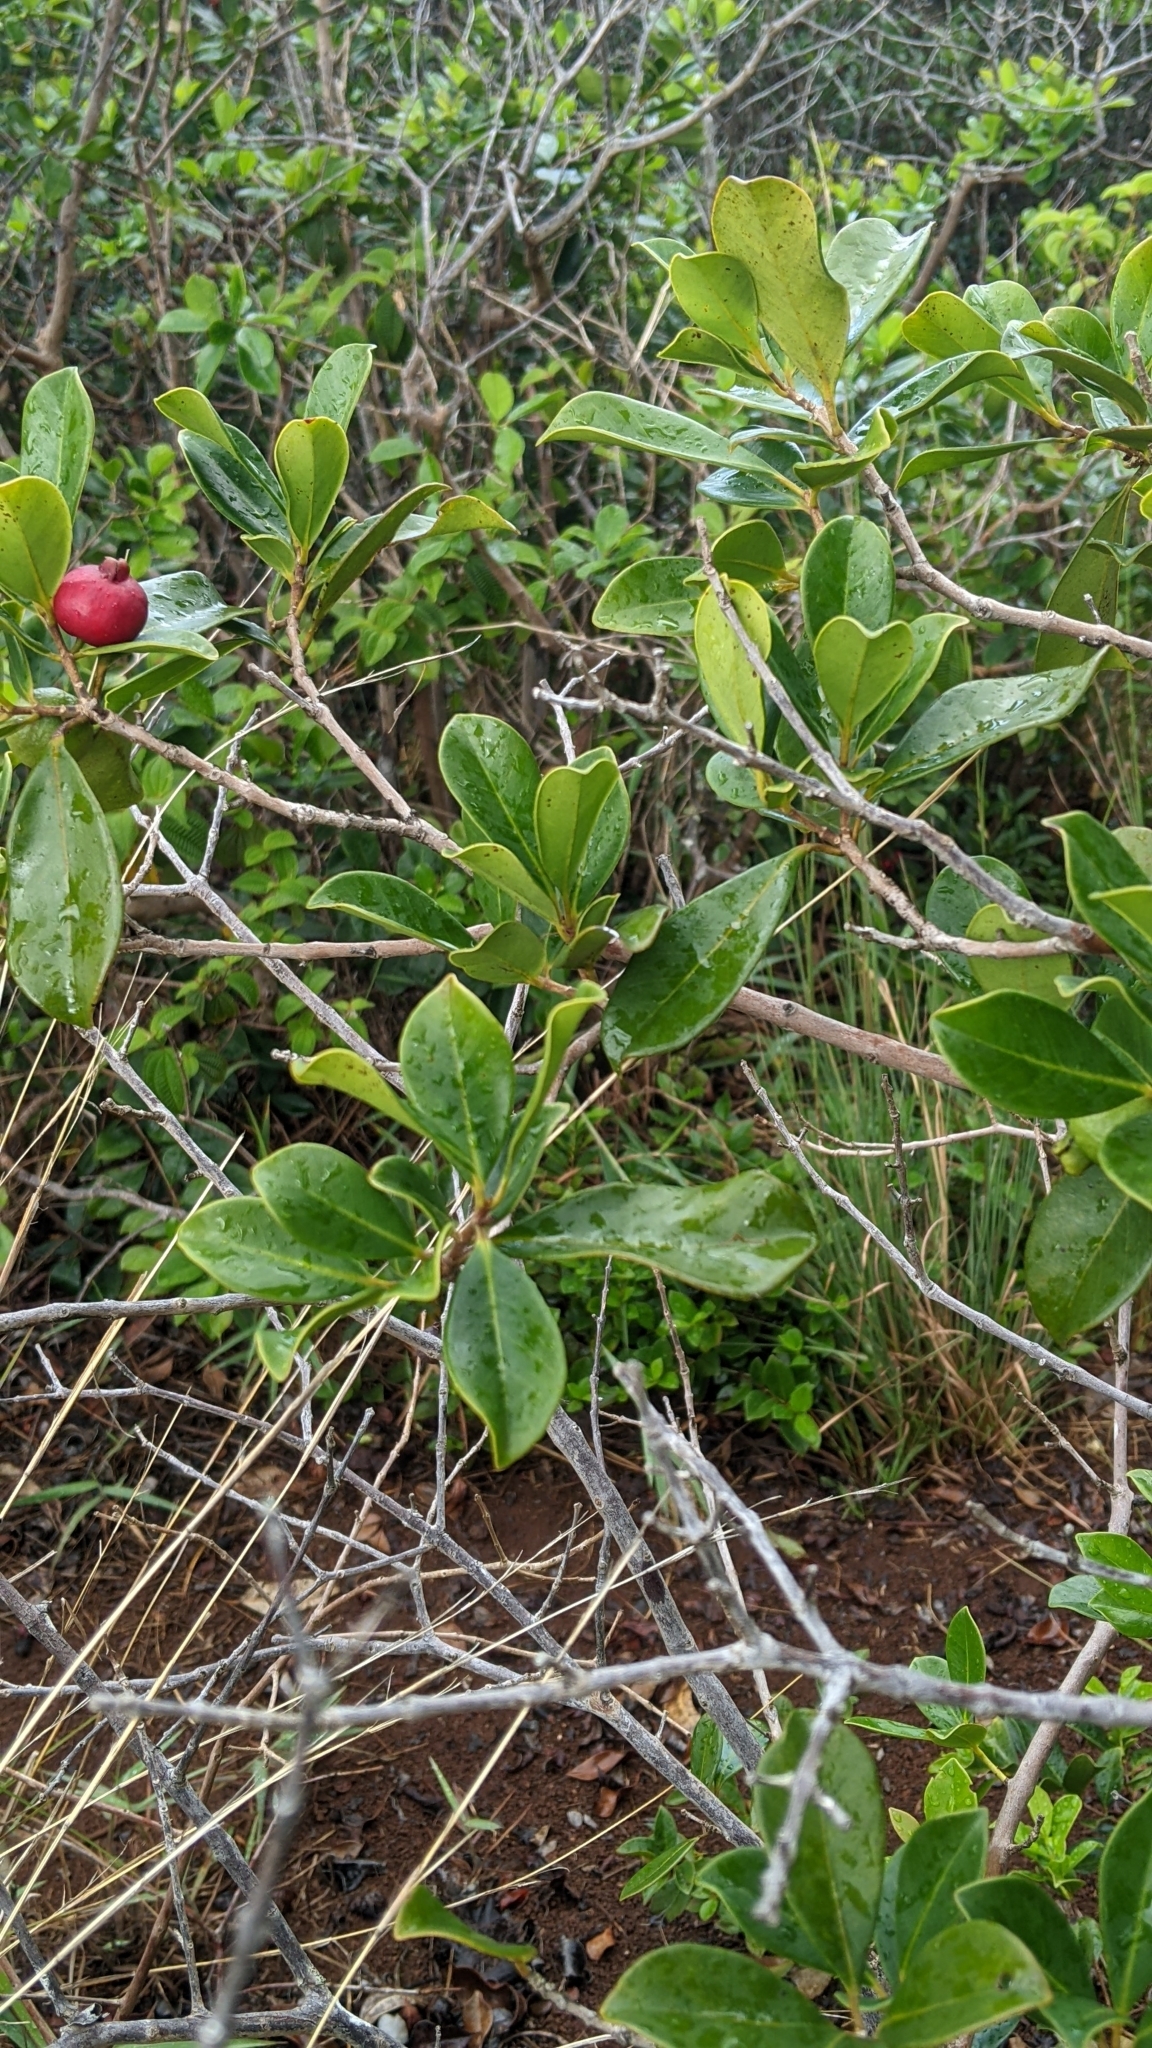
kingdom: Plantae
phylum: Tracheophyta
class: Magnoliopsida
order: Myrtales
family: Myrtaceae
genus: Psidium
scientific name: Psidium cattleianum
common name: Strawberry guava
